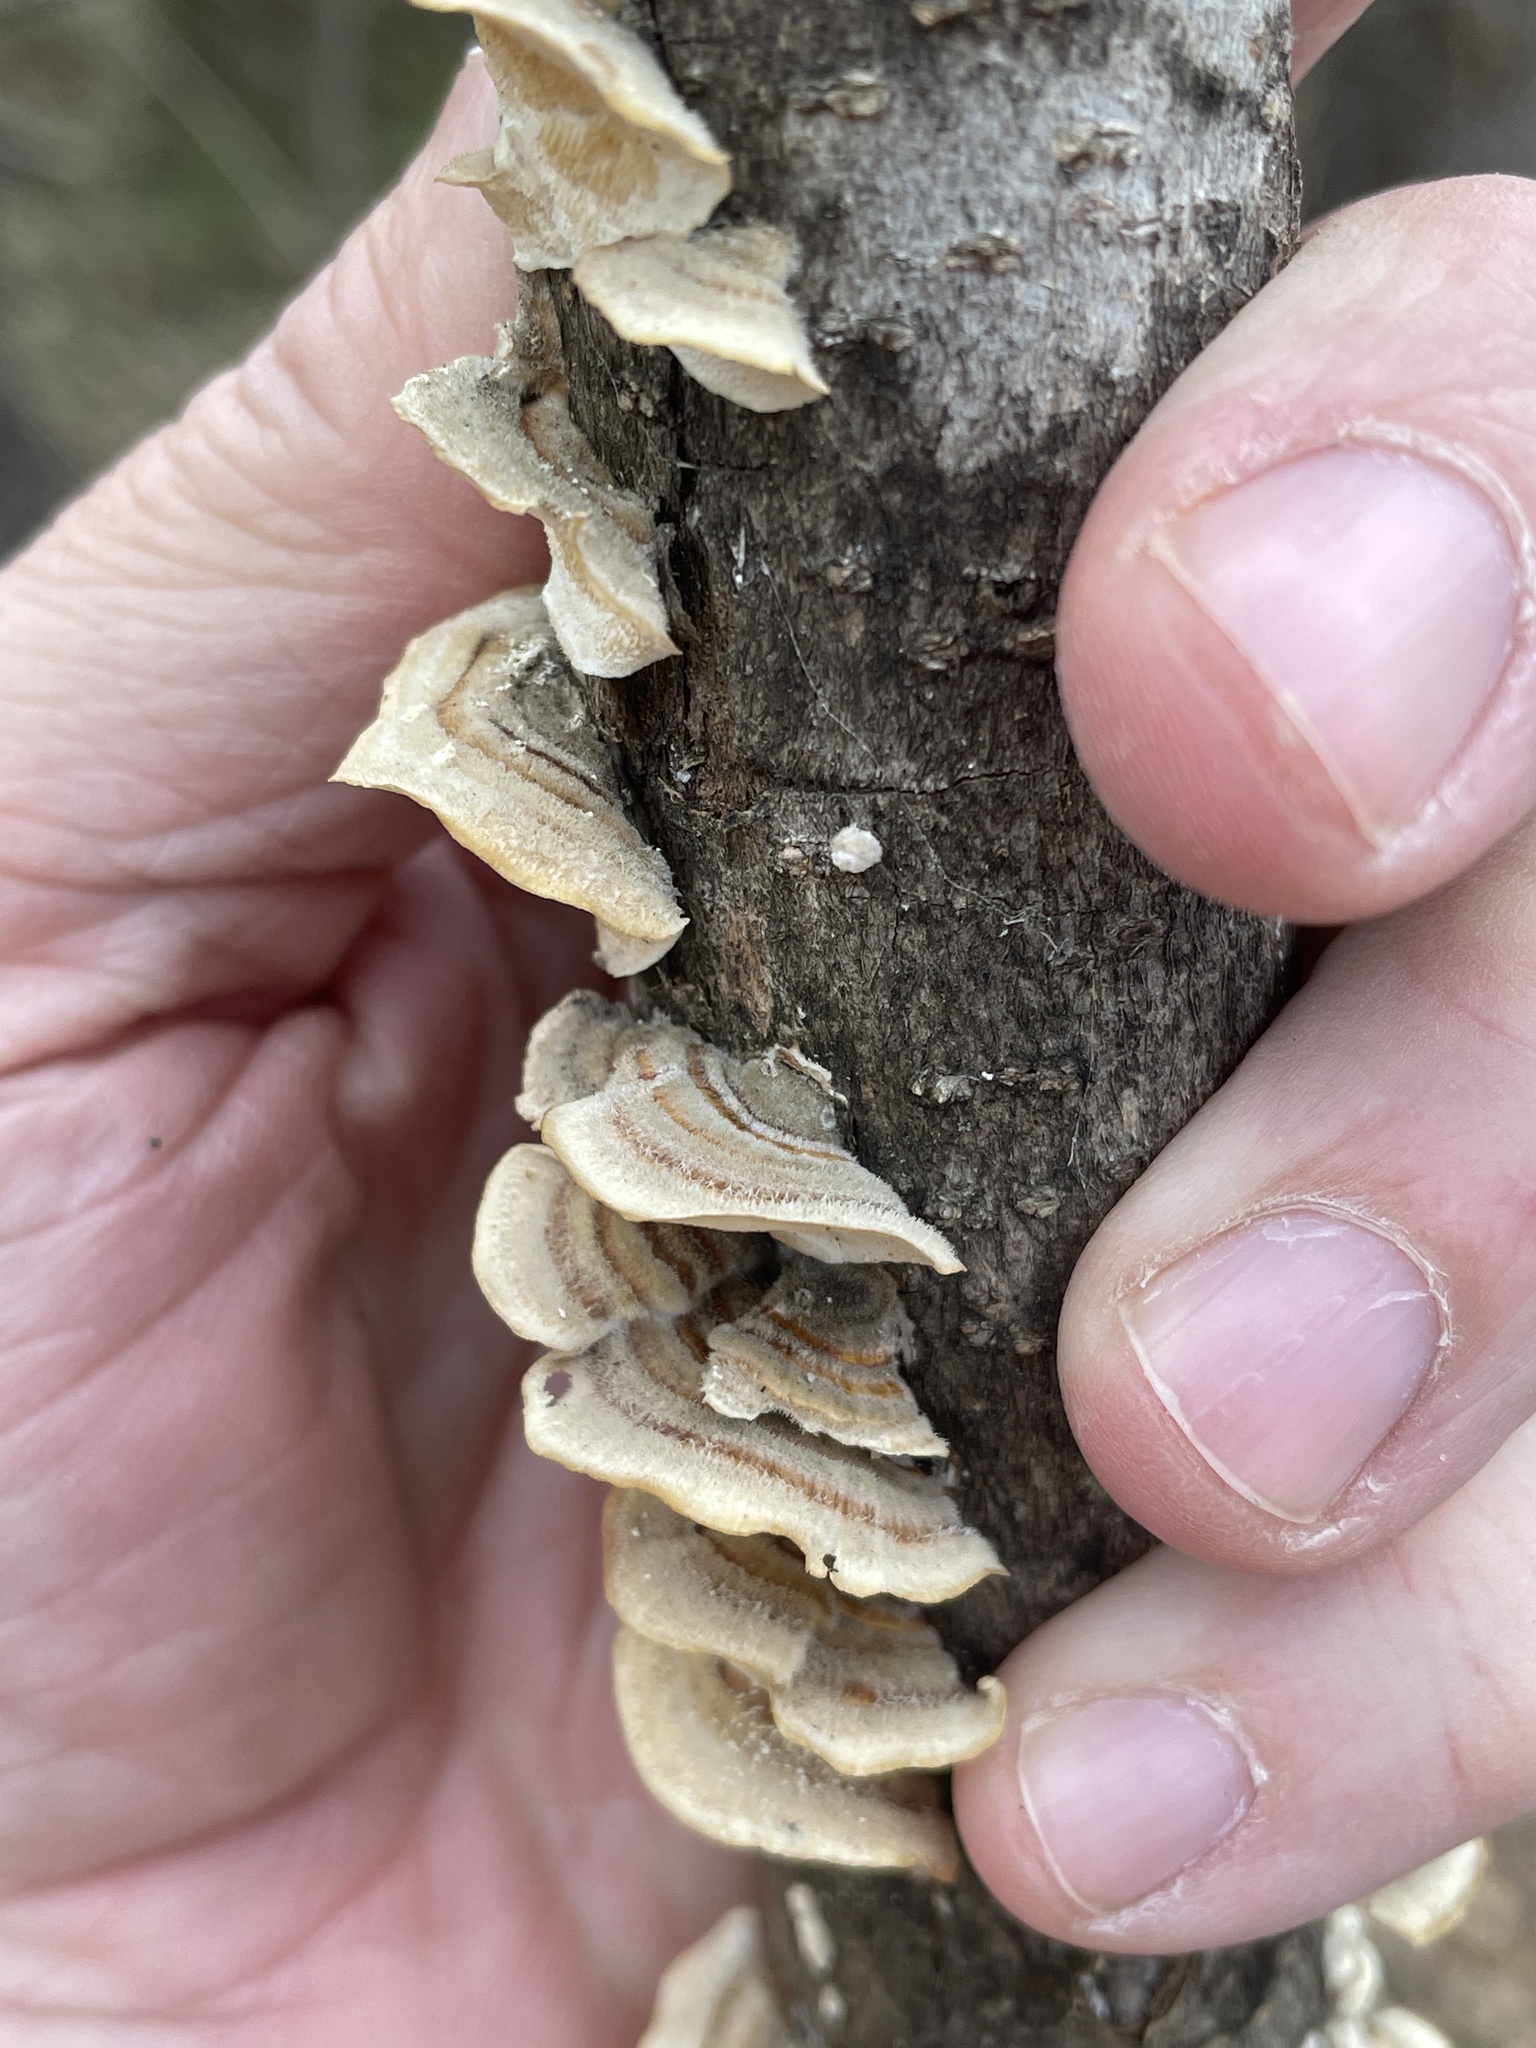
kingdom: Fungi
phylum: Basidiomycota
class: Agaricomycetes
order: Polyporales
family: Polyporaceae
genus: Trametes
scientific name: Trametes versicolor
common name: Turkeytail
